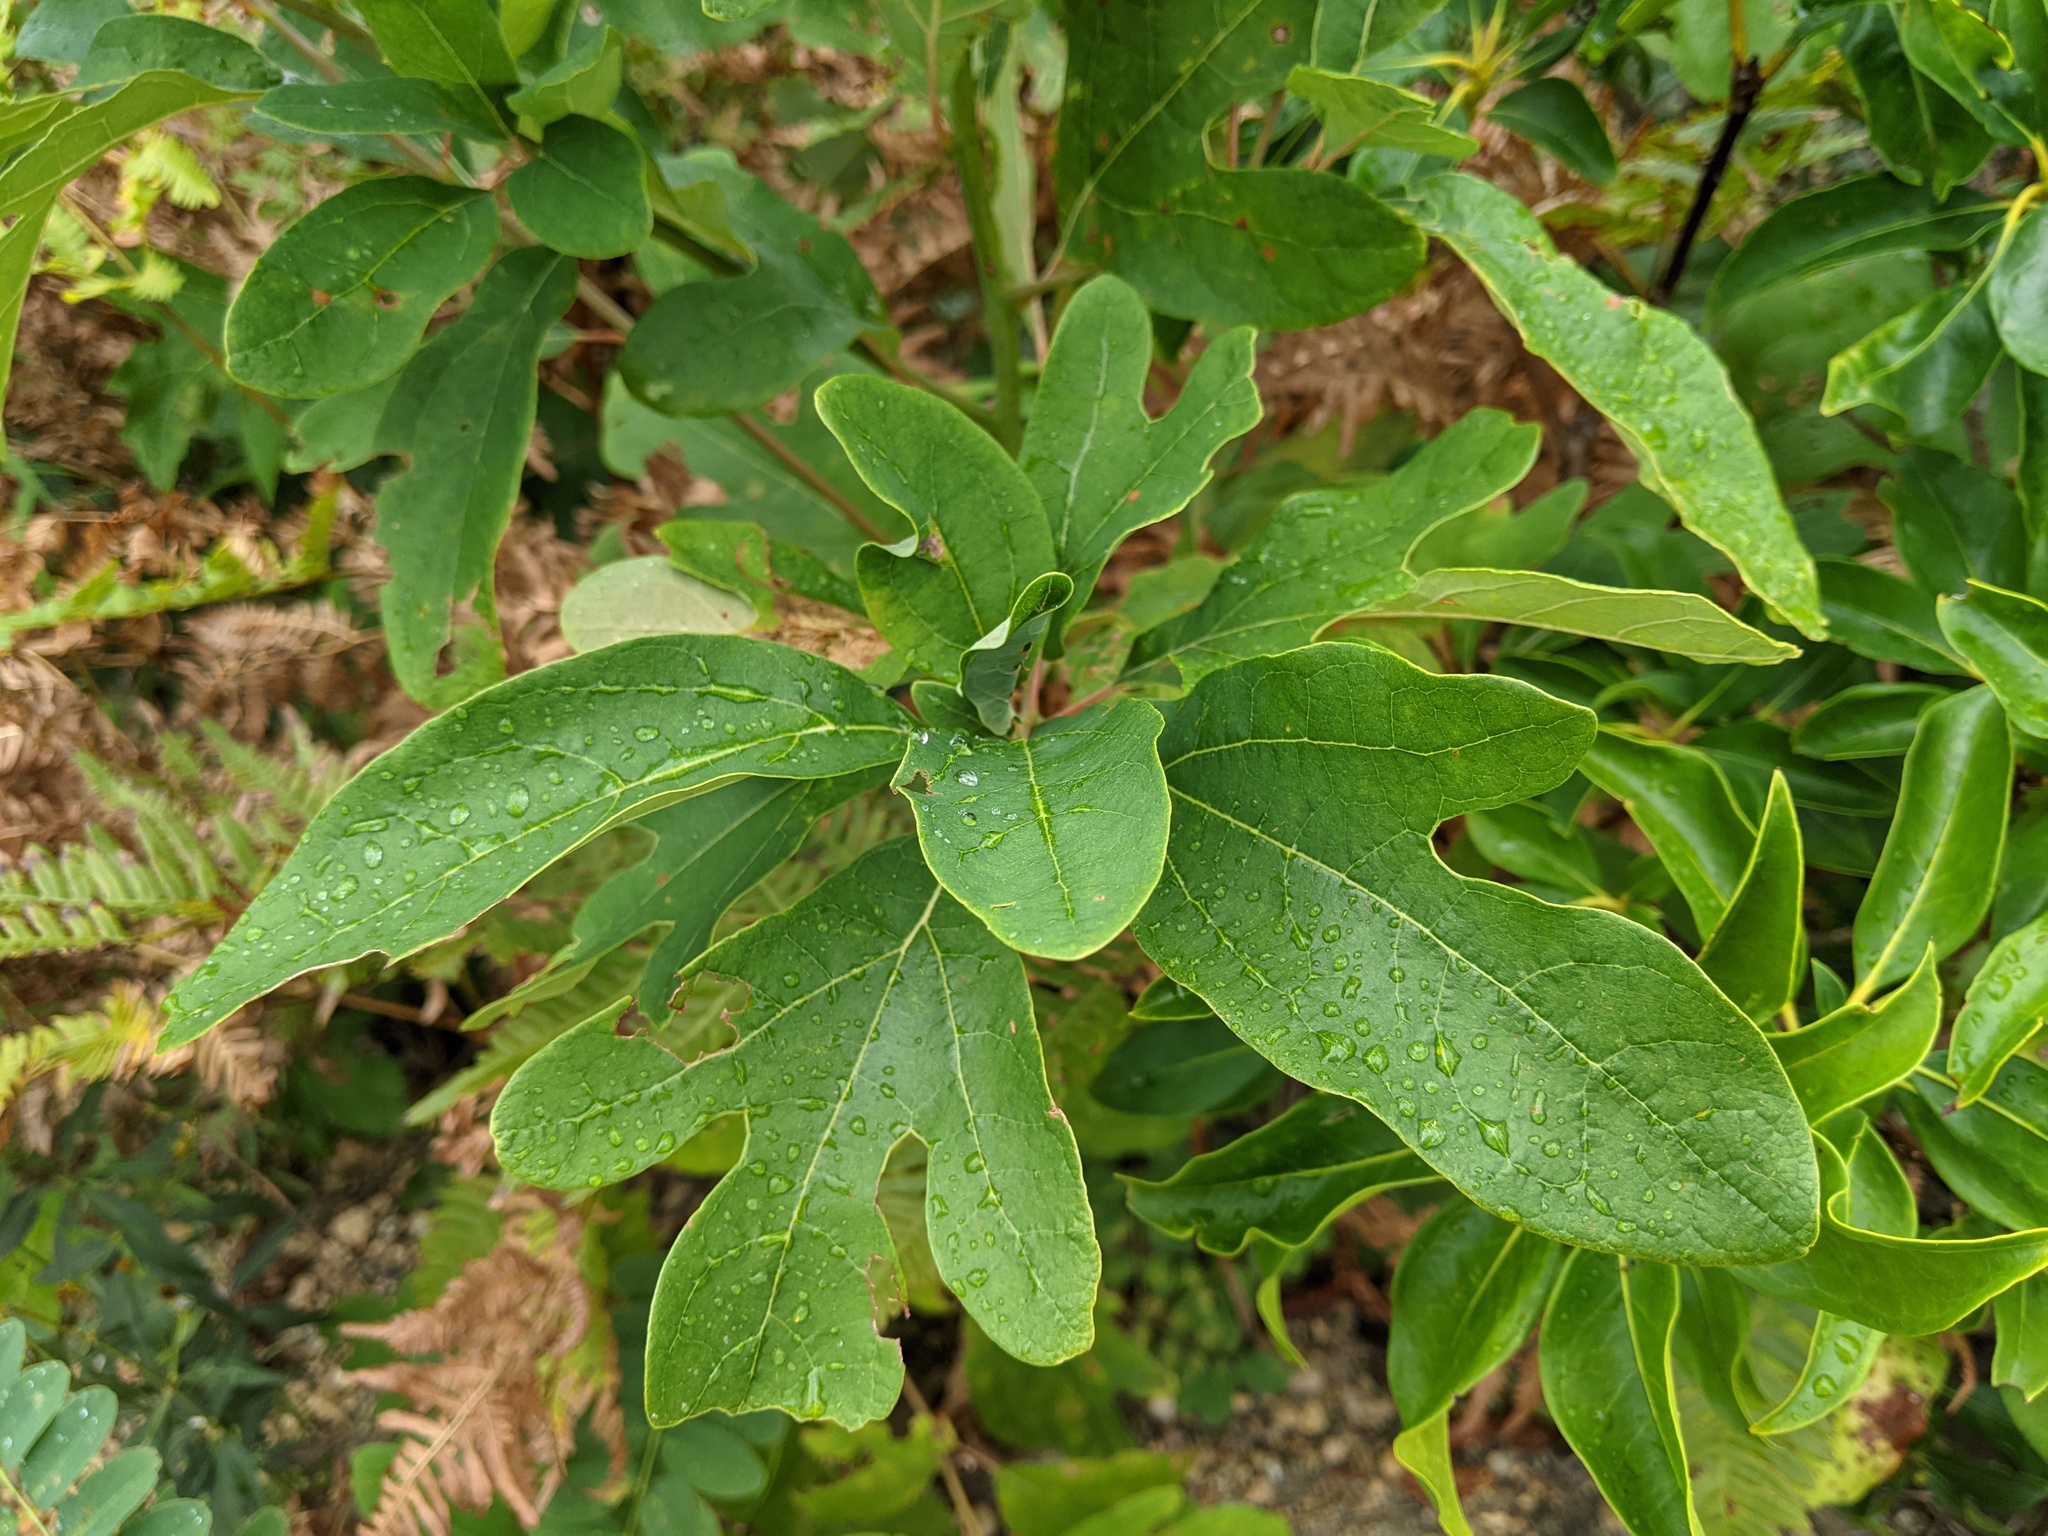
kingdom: Plantae
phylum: Tracheophyta
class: Magnoliopsida
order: Laurales
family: Lauraceae
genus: Sassafras
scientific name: Sassafras albidum
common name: Sassafras
